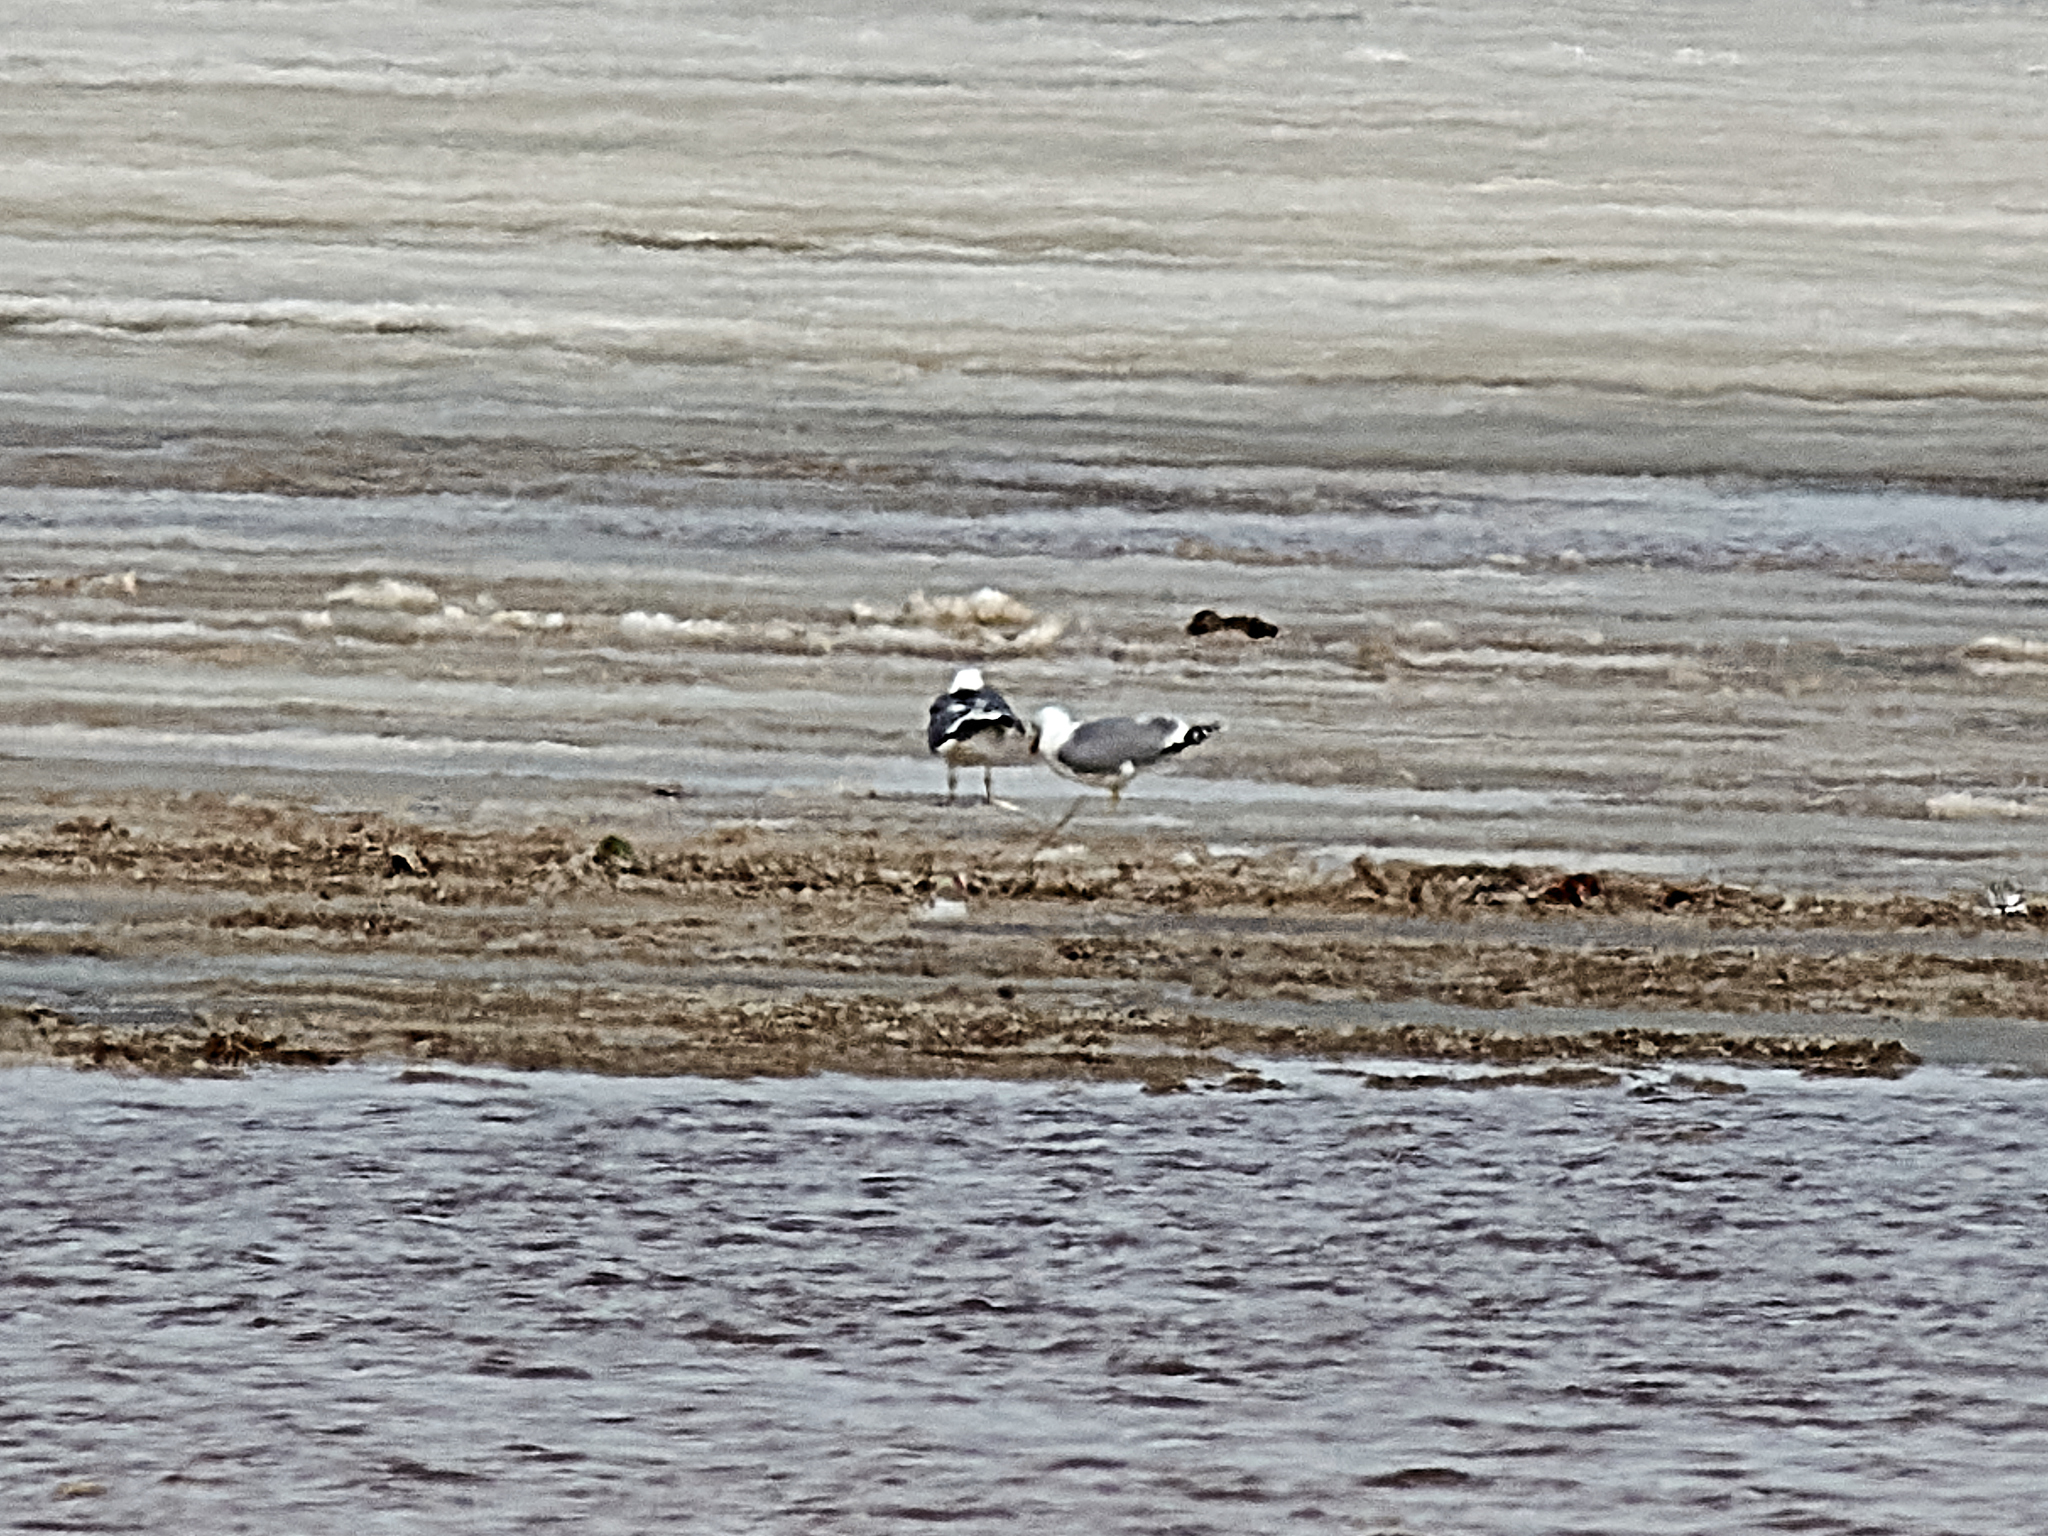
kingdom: Animalia
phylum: Chordata
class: Aves
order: Charadriiformes
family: Laridae
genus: Larus
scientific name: Larus fuscus
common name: Lesser black-backed gull
